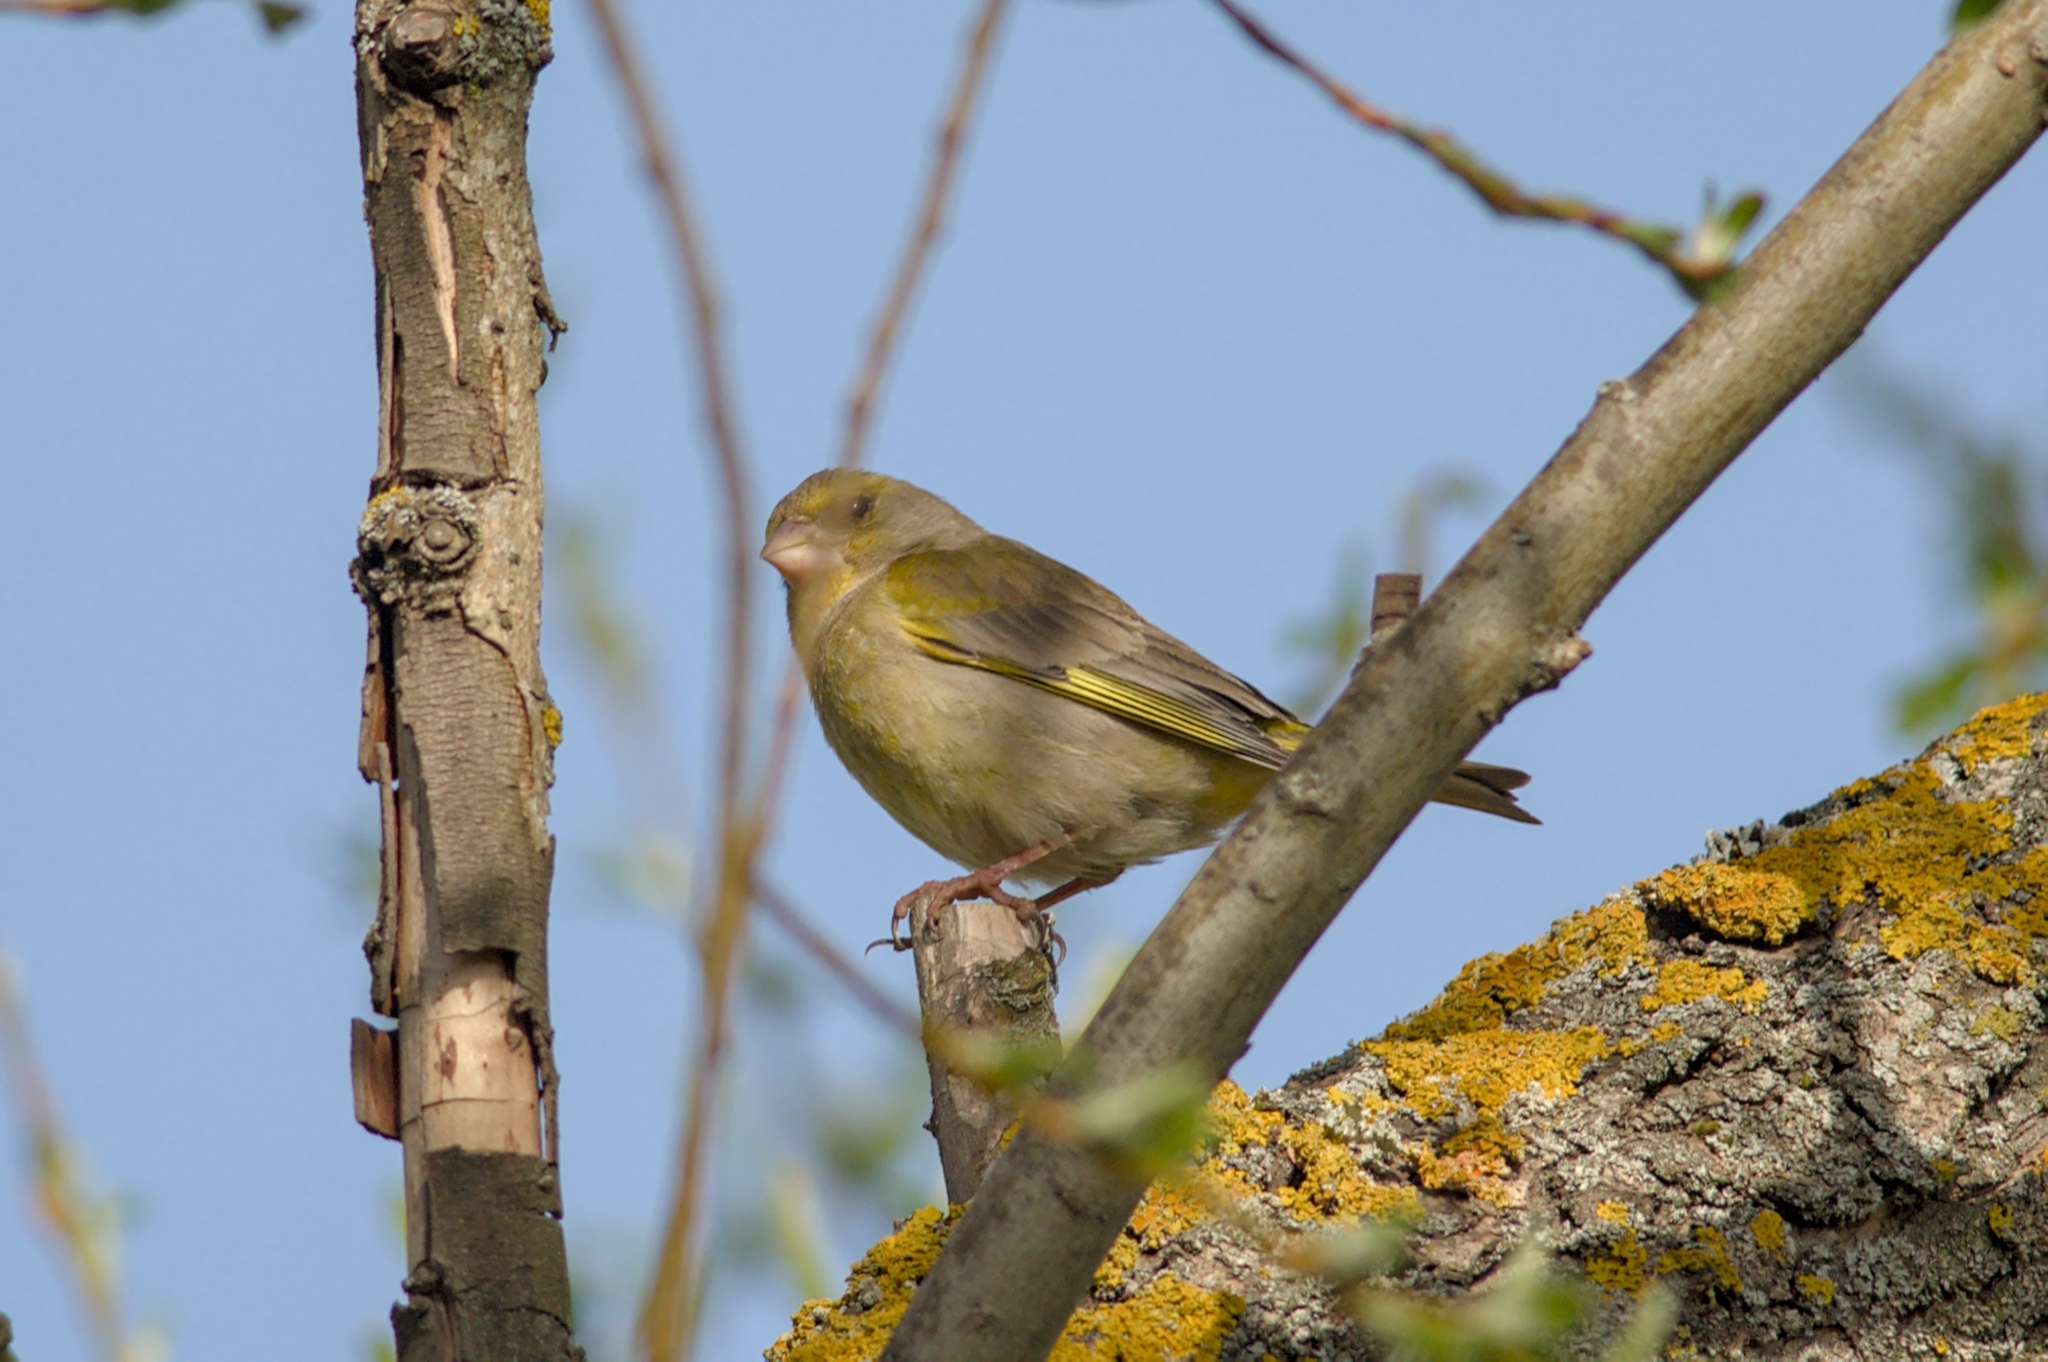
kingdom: Plantae
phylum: Tracheophyta
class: Liliopsida
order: Poales
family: Poaceae
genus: Chloris
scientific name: Chloris chloris
